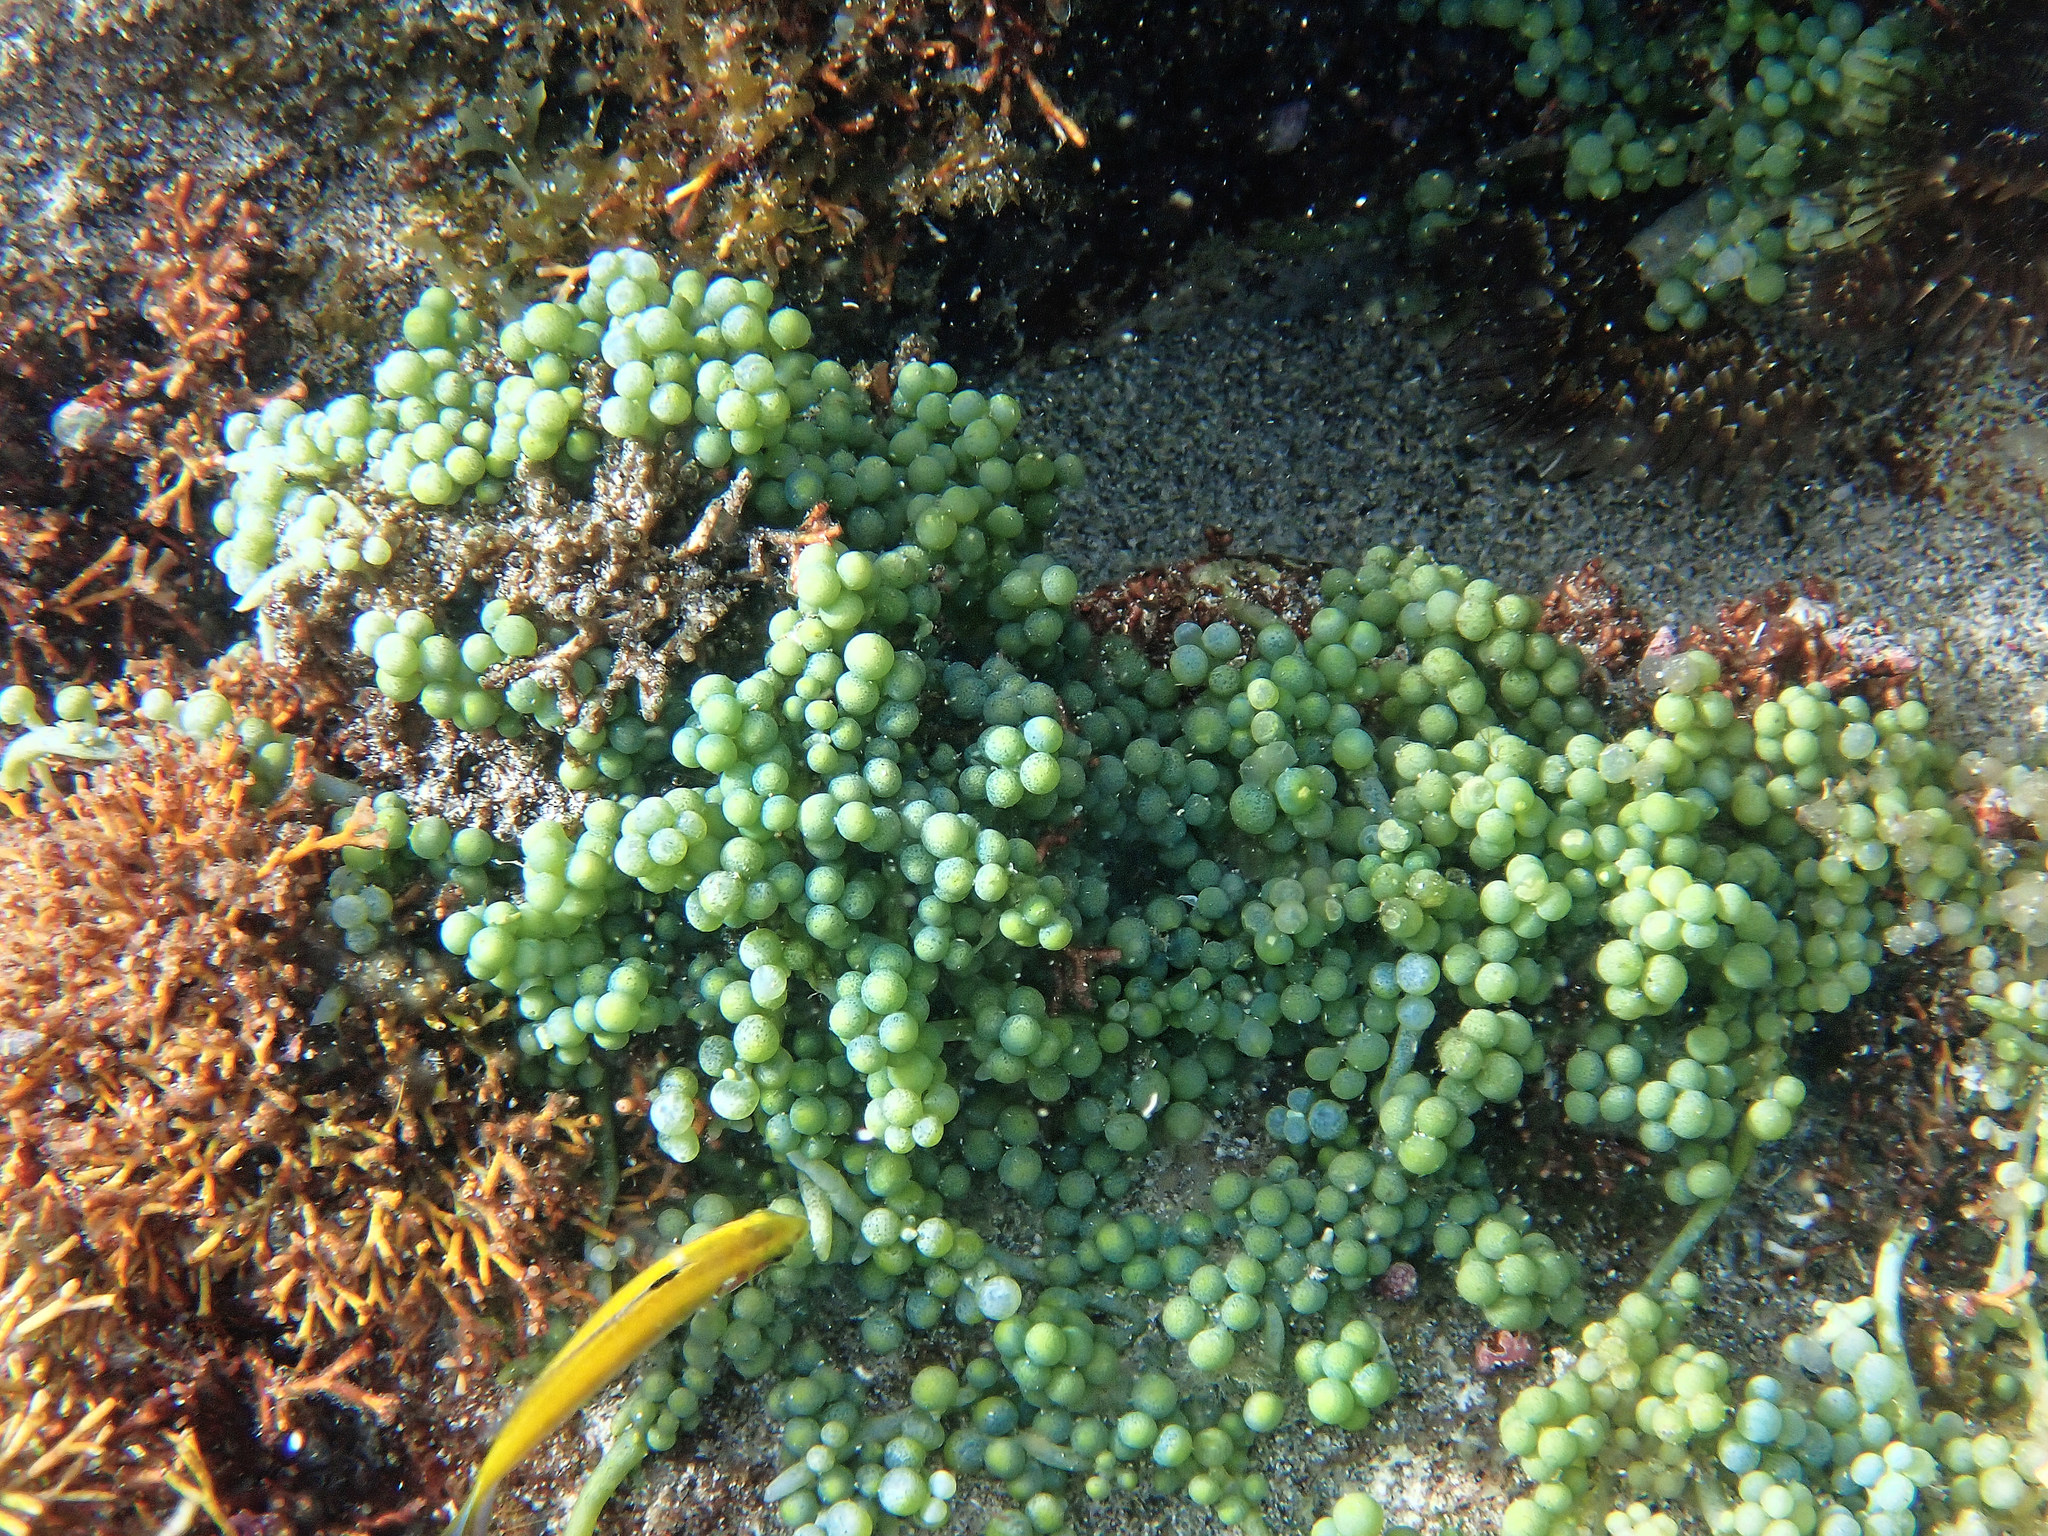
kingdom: Plantae
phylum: Chlorophyta
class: Ulvophyceae
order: Bryopsidales
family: Caulerpaceae
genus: Caulerpa
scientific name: Caulerpa racemosa
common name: Green grape algae
